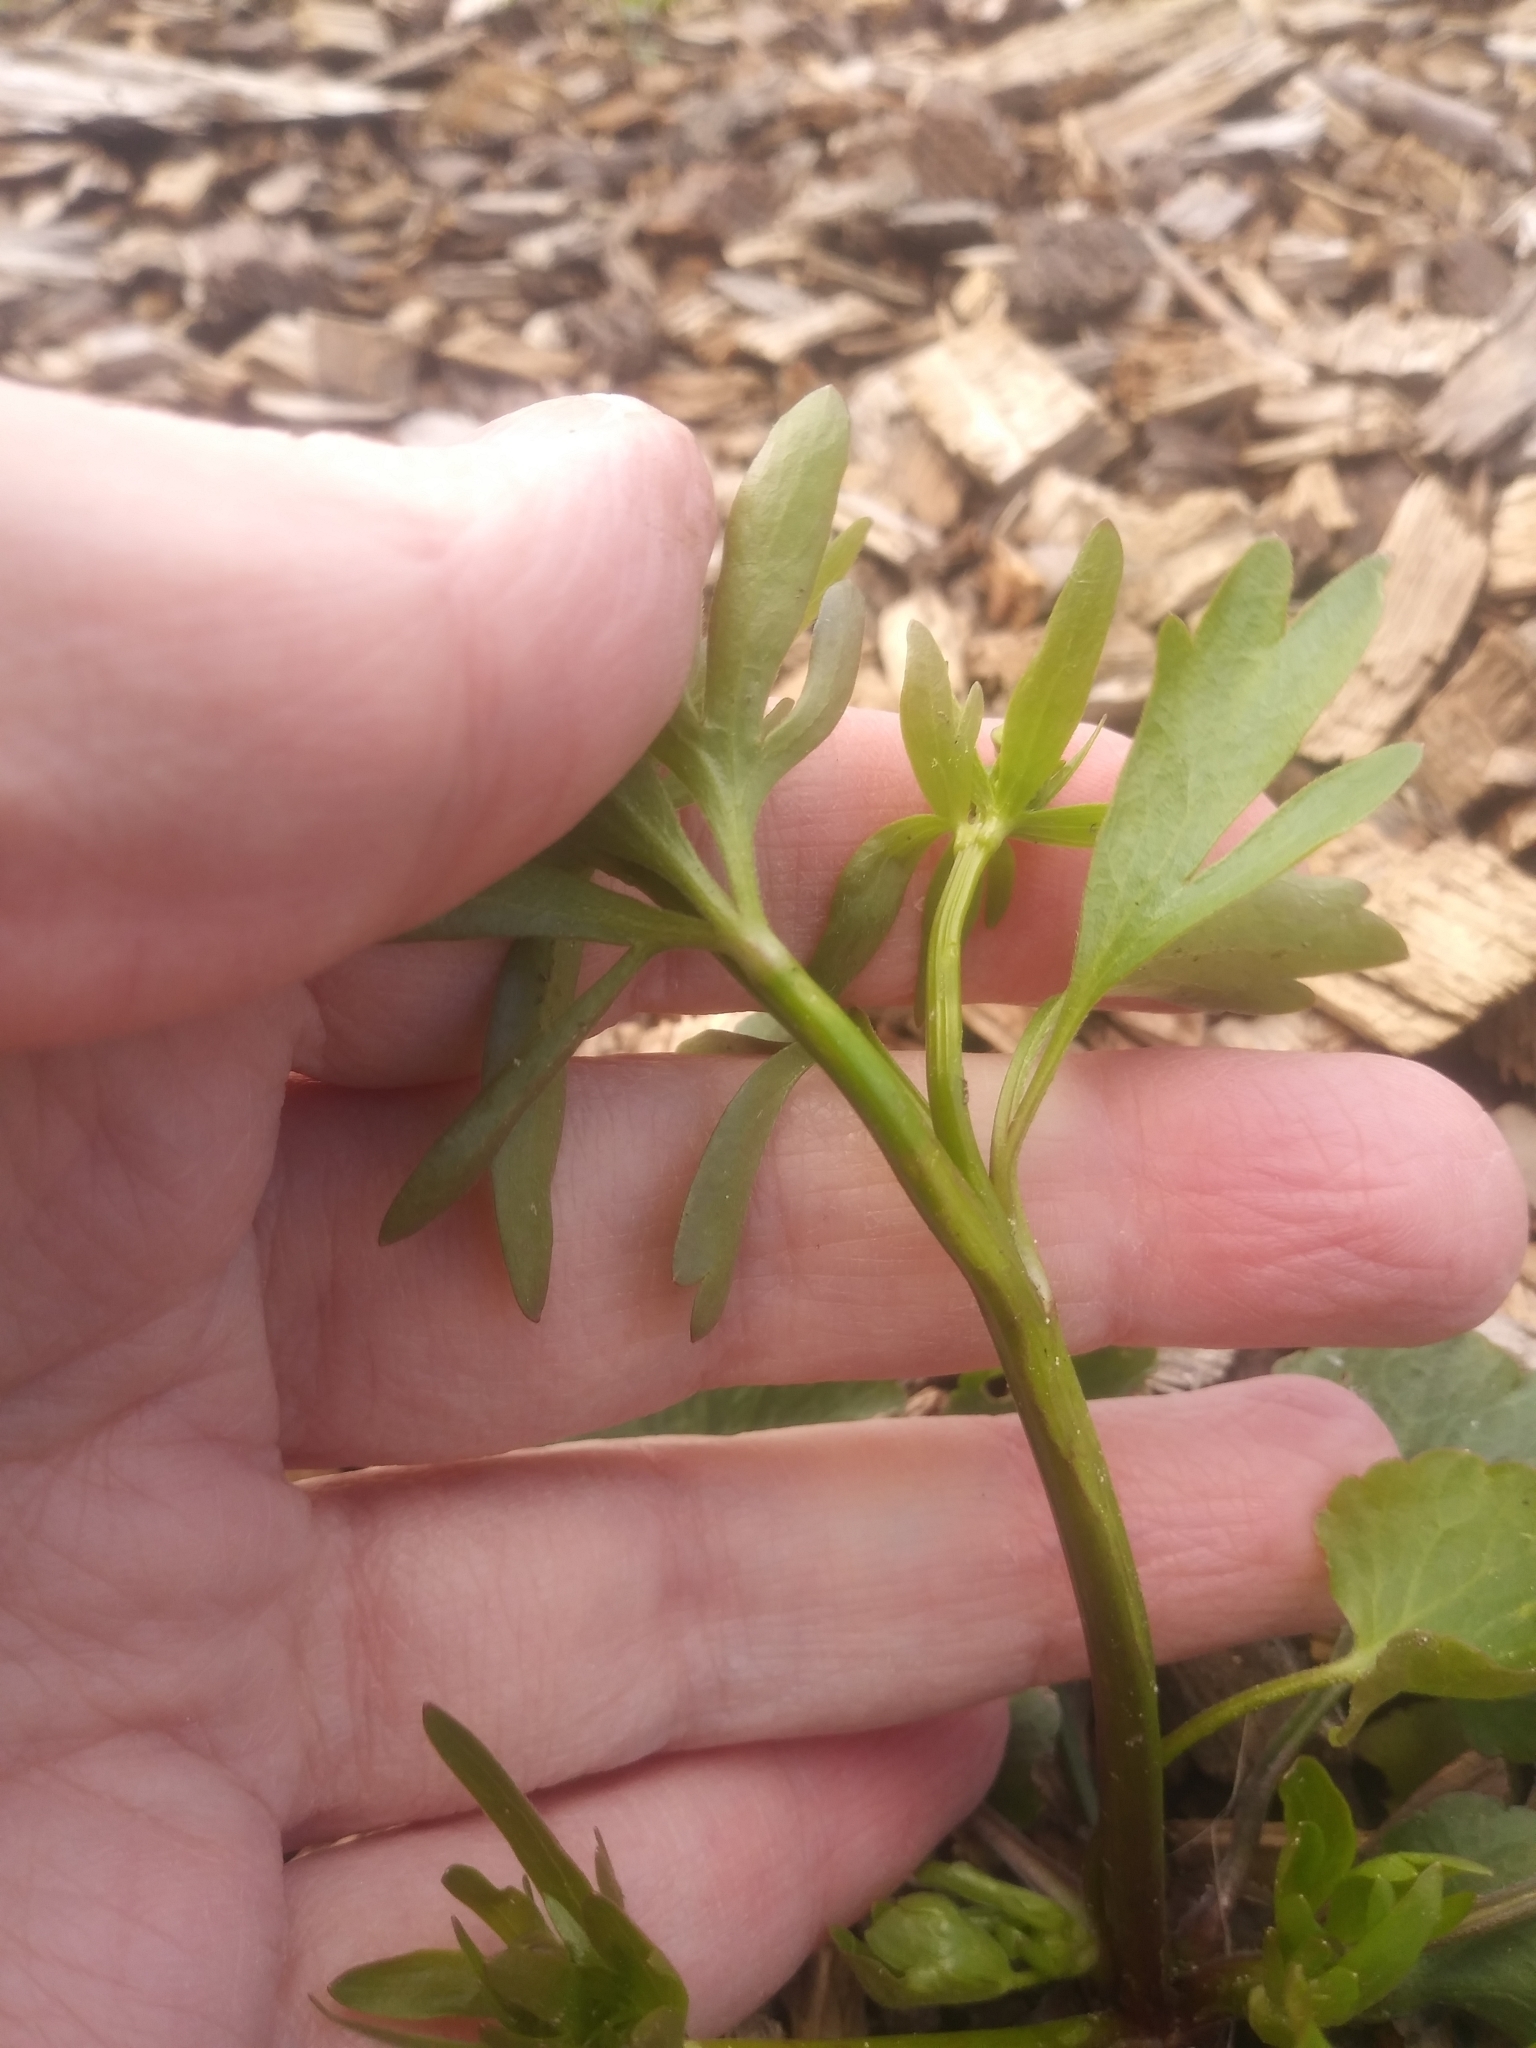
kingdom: Plantae
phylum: Tracheophyta
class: Magnoliopsida
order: Ranunculales
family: Ranunculaceae
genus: Ranunculus
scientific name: Ranunculus abortivus
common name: Early wood buttercup
